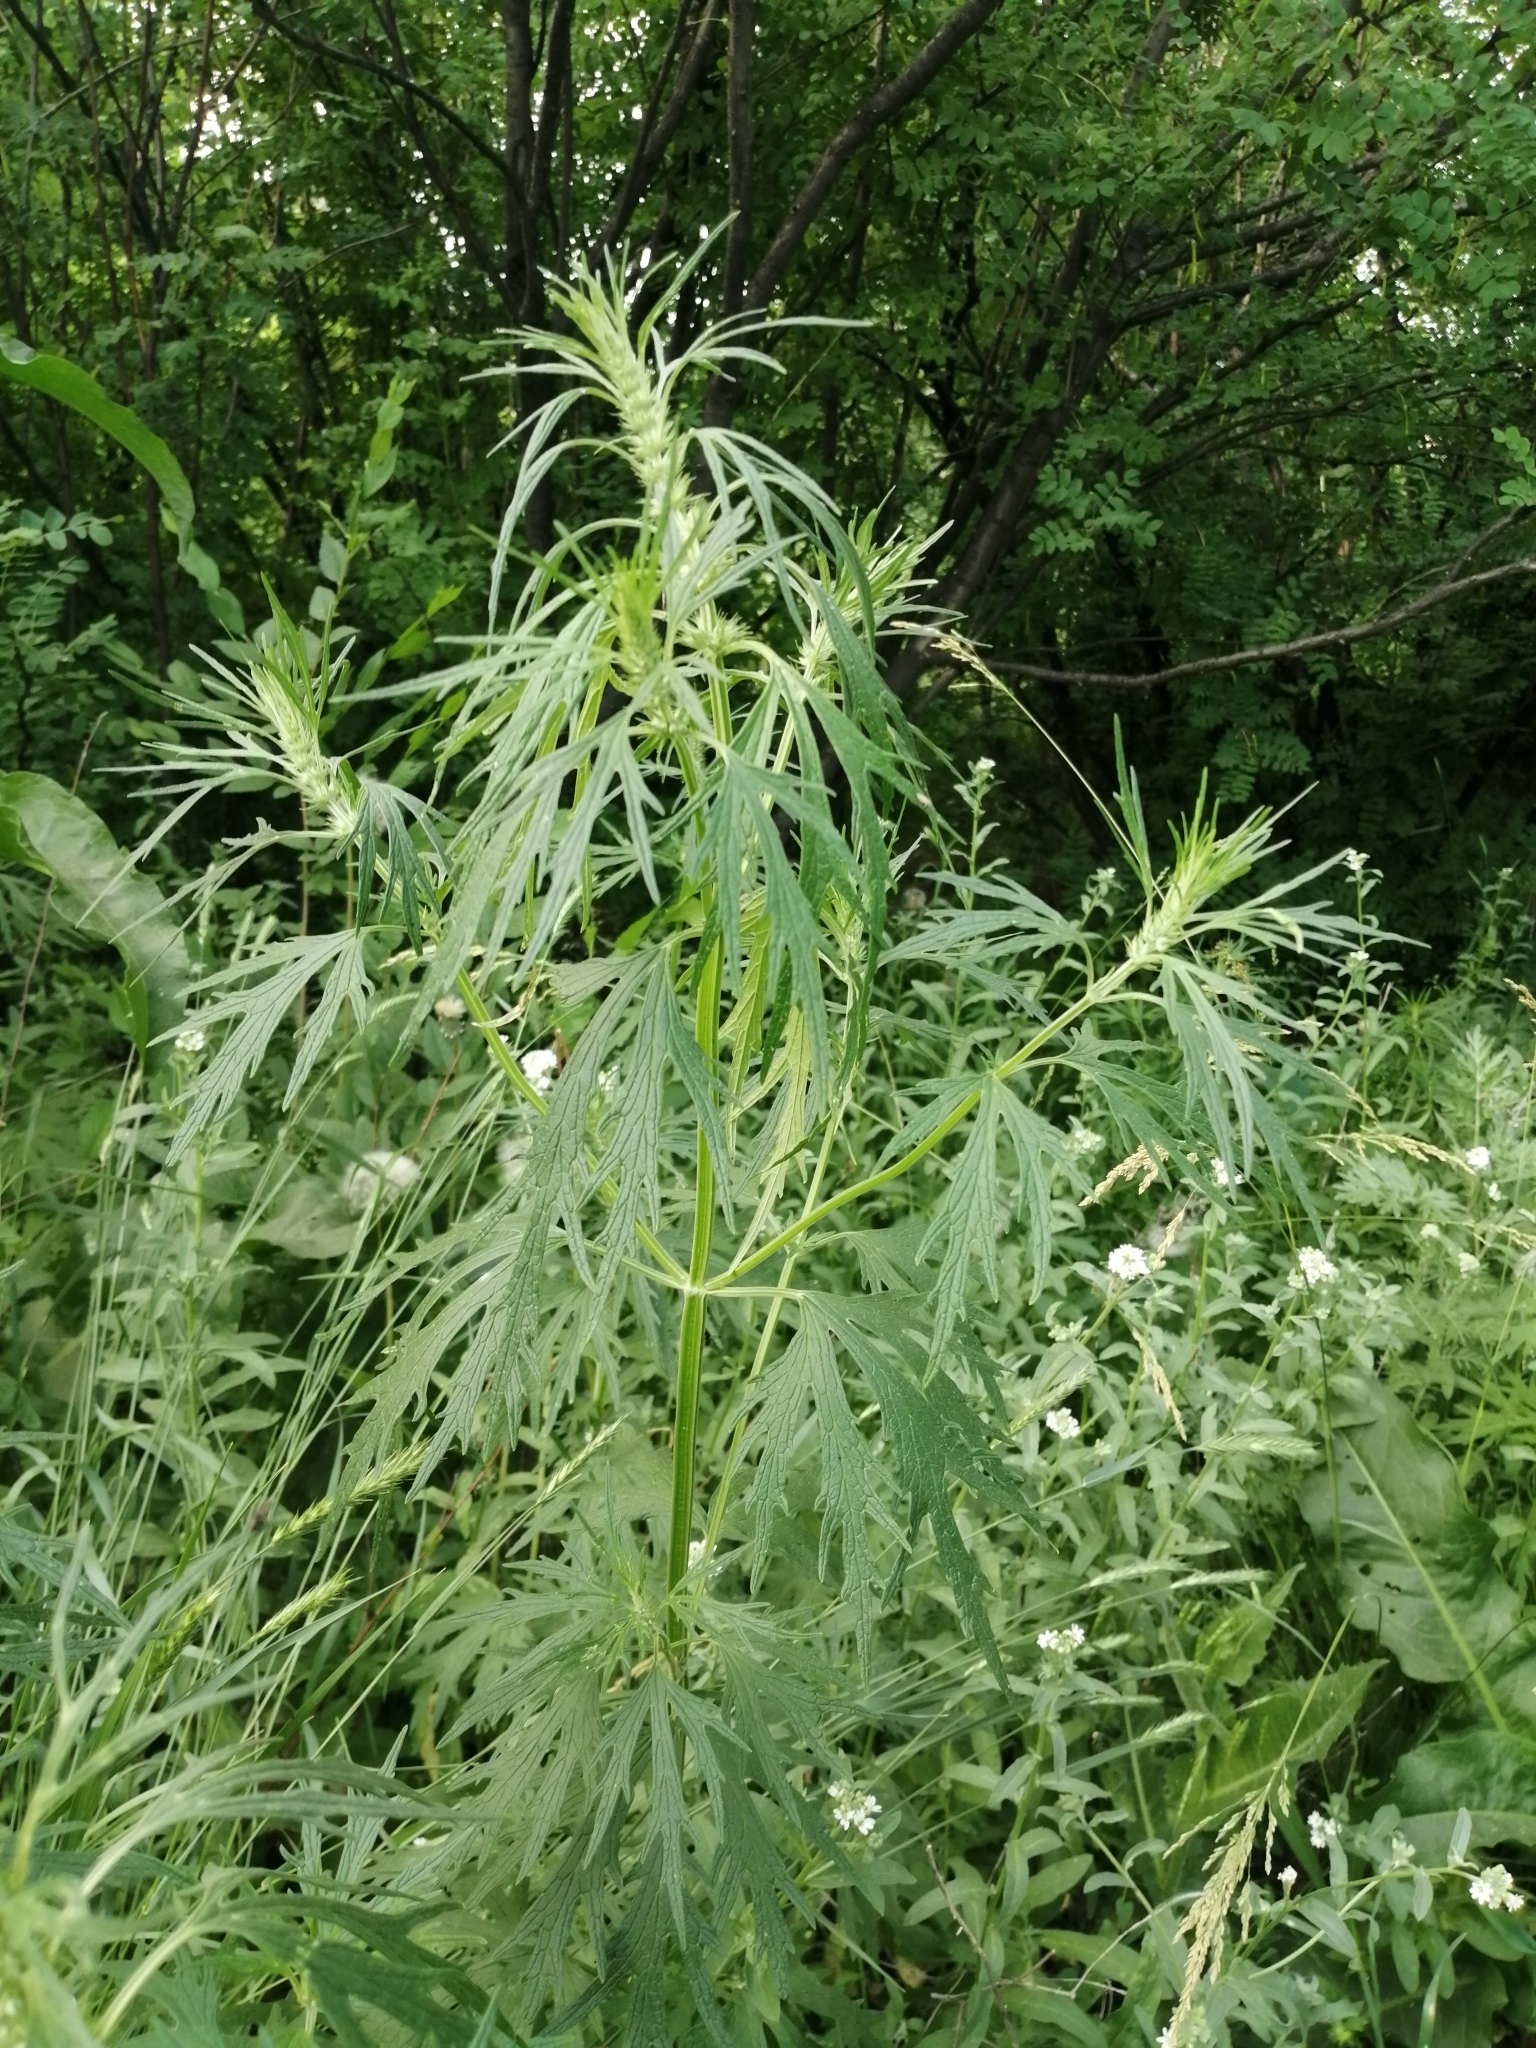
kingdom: Plantae
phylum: Tracheophyta
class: Magnoliopsida
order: Lamiales
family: Lamiaceae
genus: Leonurus
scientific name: Leonurus glaucescens
